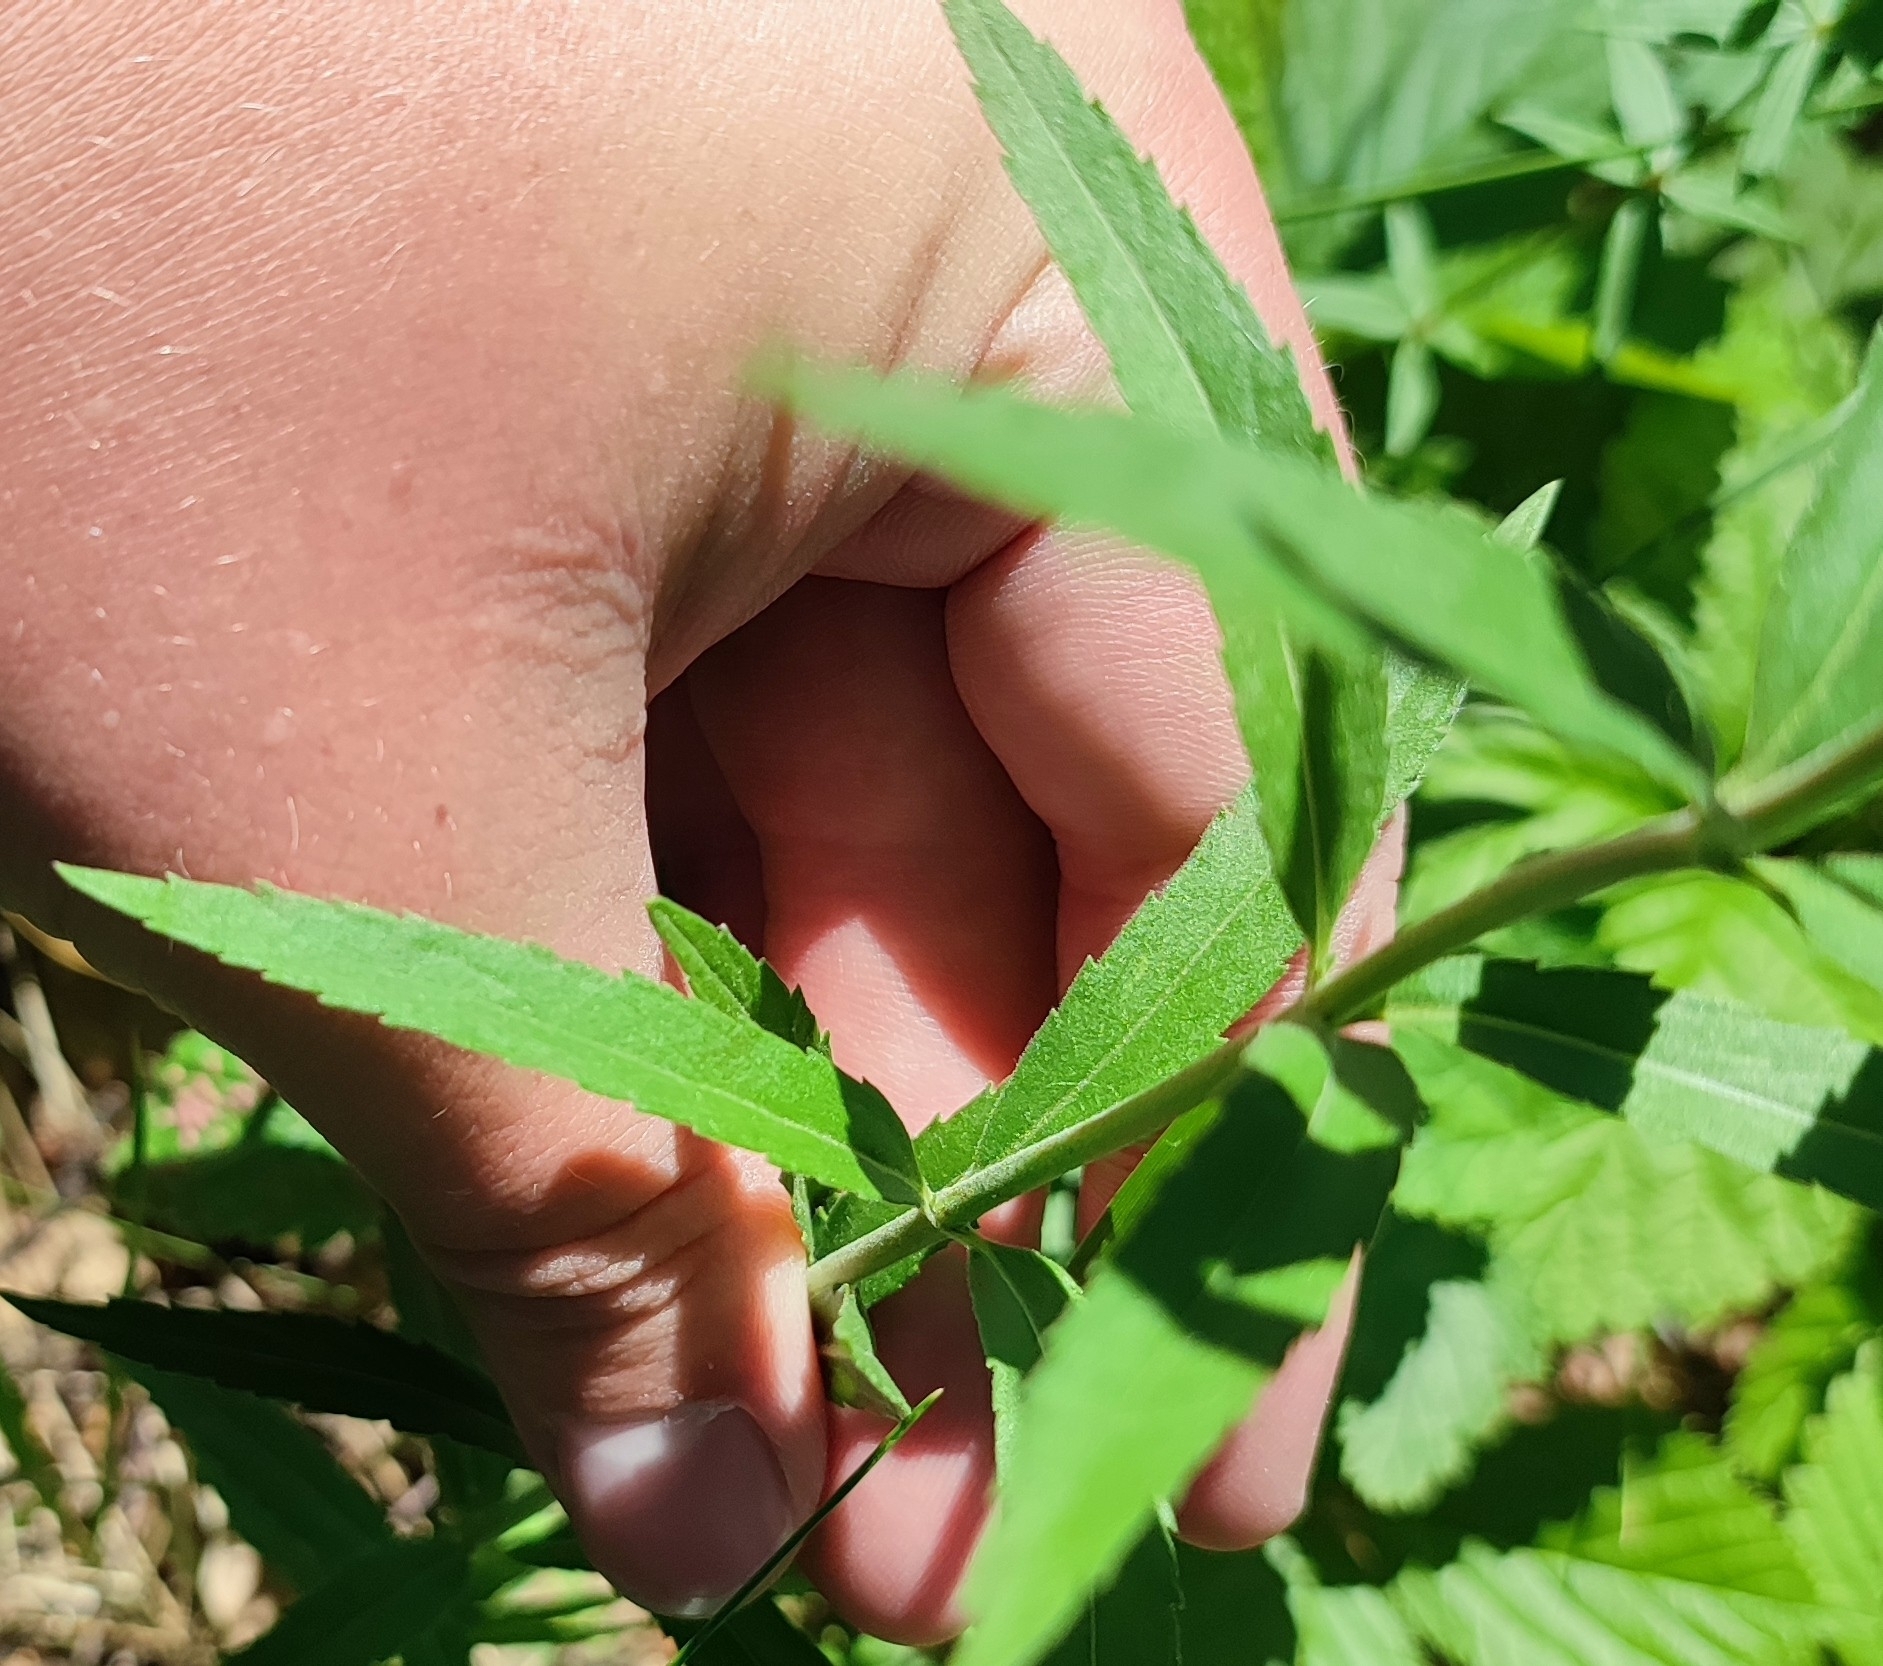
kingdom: Plantae
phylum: Tracheophyta
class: Magnoliopsida
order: Lamiales
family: Plantaginaceae
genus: Veronica
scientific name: Veronica spuria
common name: Bastard speedwell
